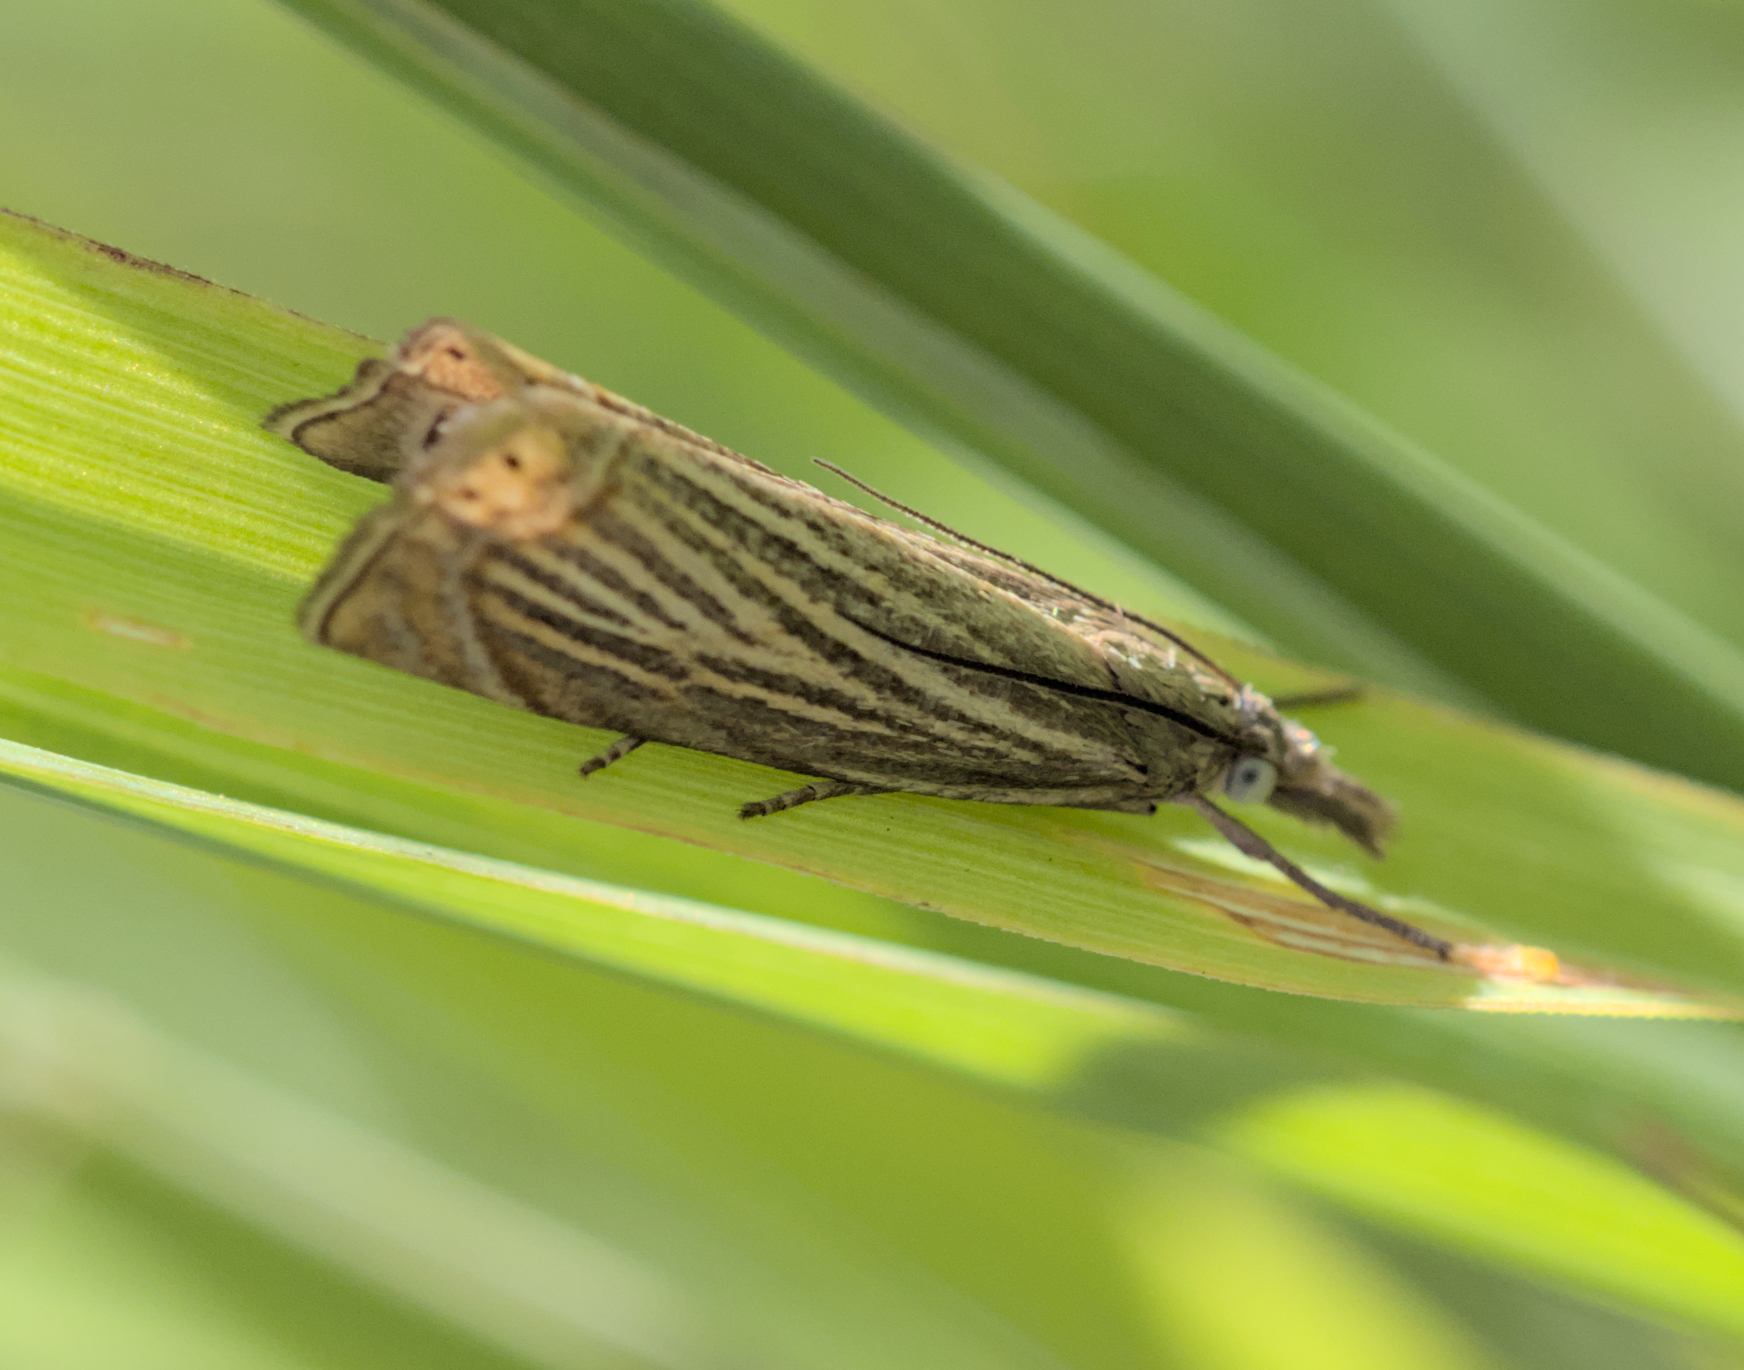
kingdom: Animalia
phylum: Arthropoda
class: Insecta
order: Lepidoptera
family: Crambidae
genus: Chrysoteuchia
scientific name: Chrysoteuchia culmella
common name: Garden grass-veneer
